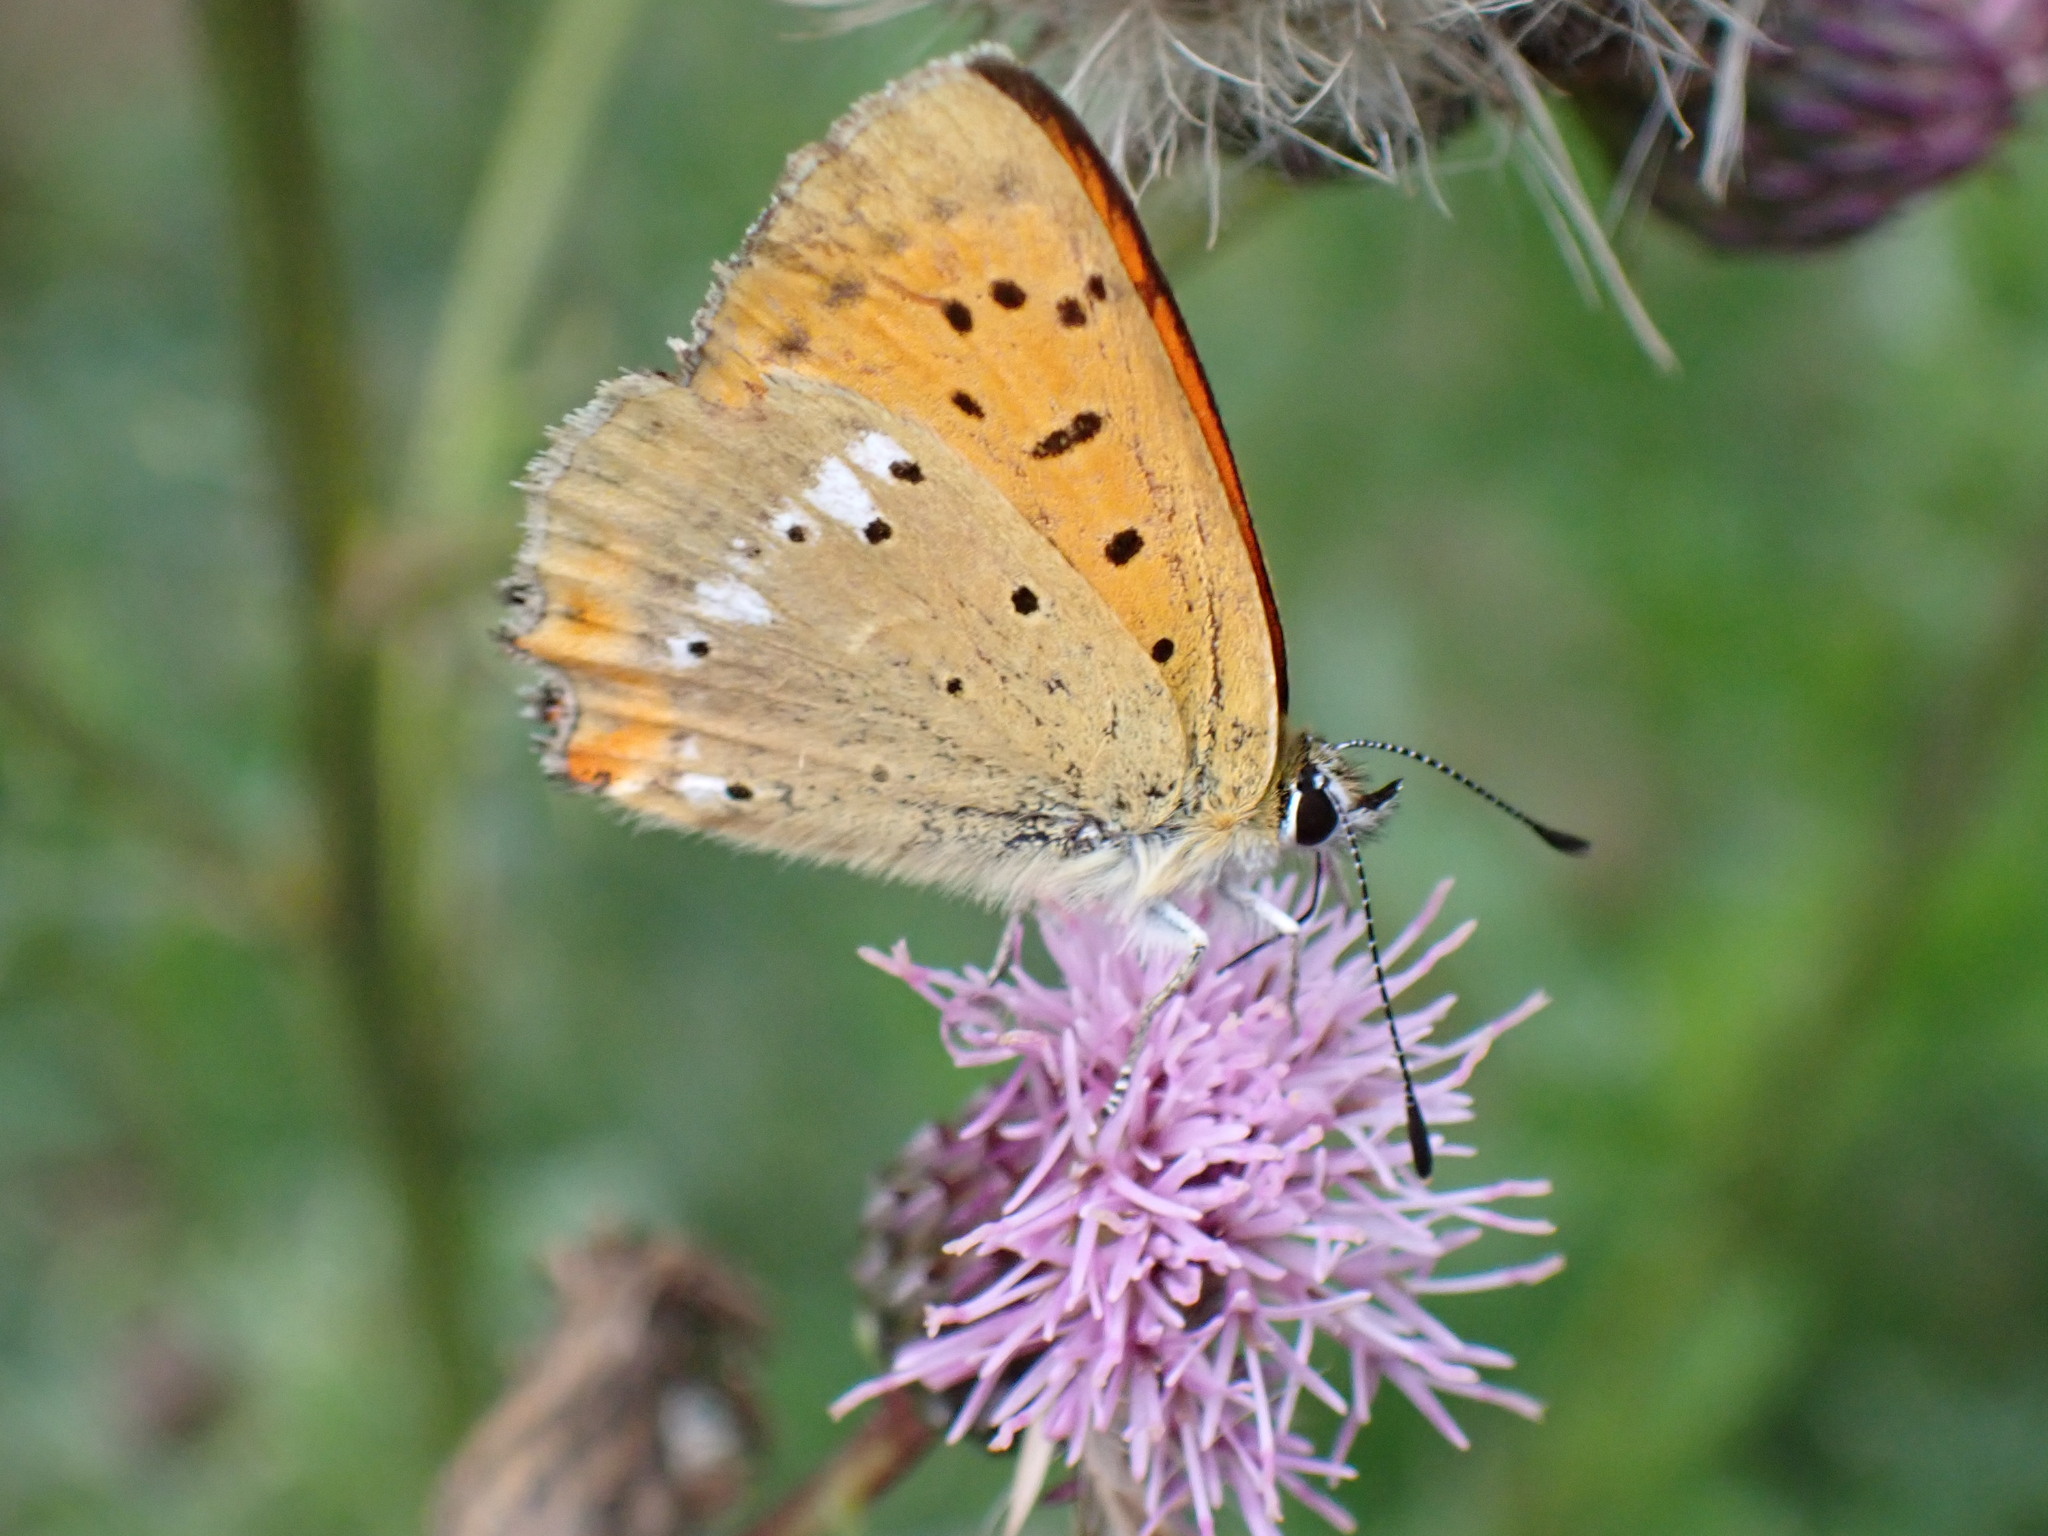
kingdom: Animalia
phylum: Arthropoda
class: Insecta
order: Lepidoptera
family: Lycaenidae
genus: Lycaena
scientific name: Lycaena virgaureae
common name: Scarce copper
